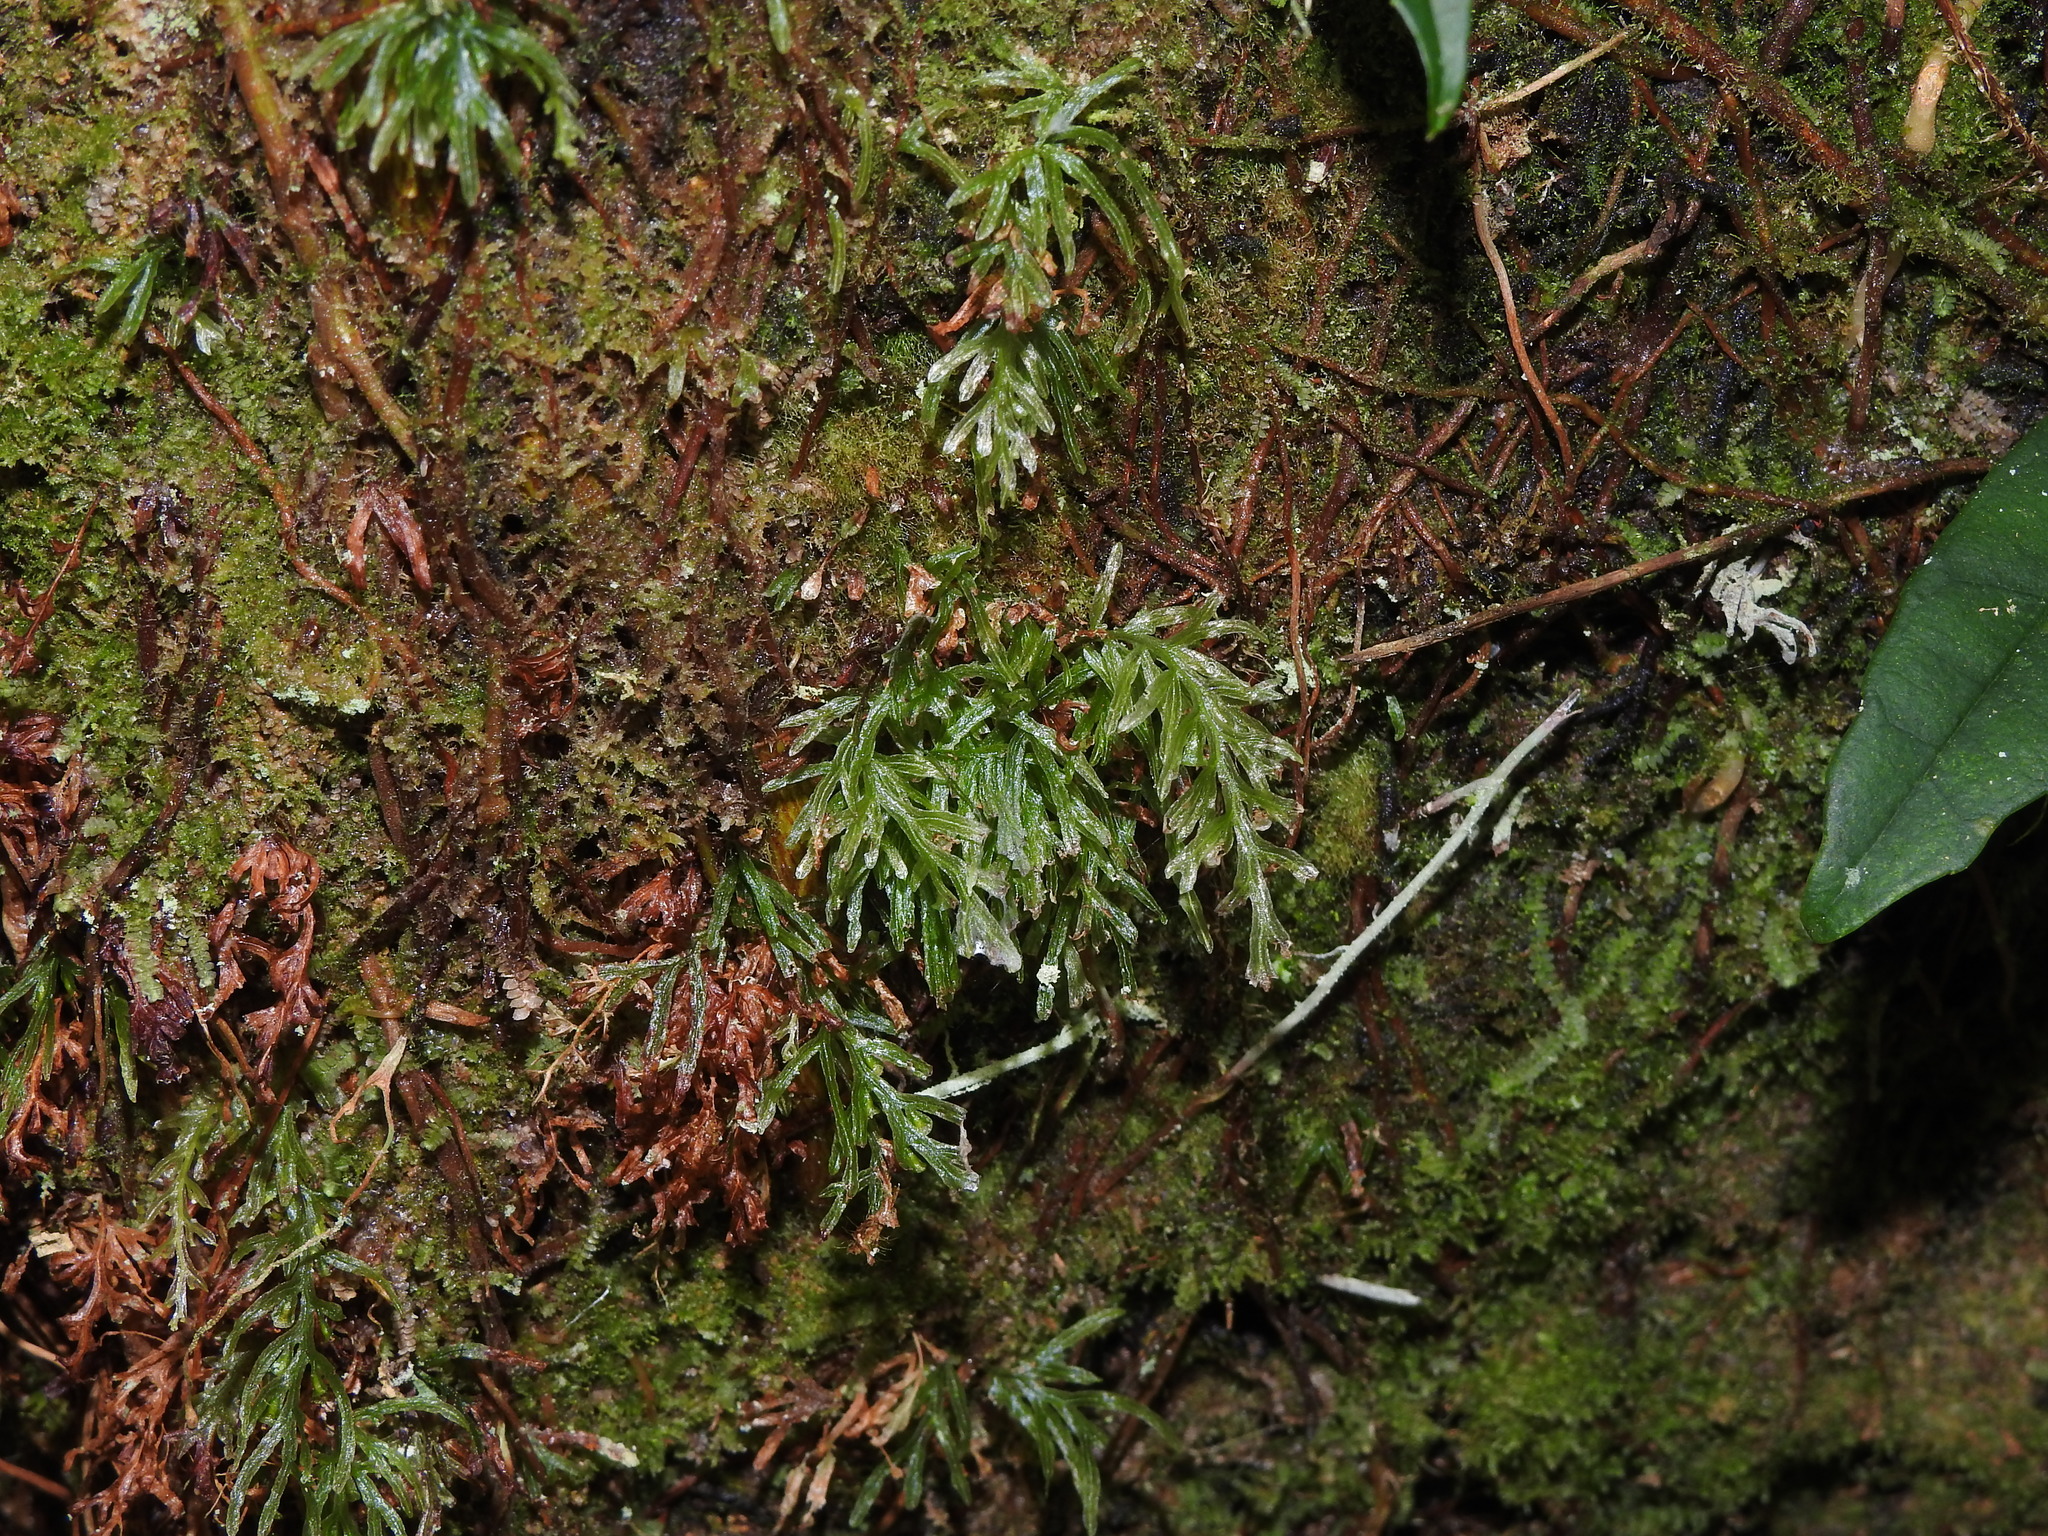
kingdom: Plantae
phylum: Tracheophyta
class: Polypodiopsida
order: Hymenophyllales
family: Hymenophyllaceae
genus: Abrodictyum
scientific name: Abrodictyum cumingii
